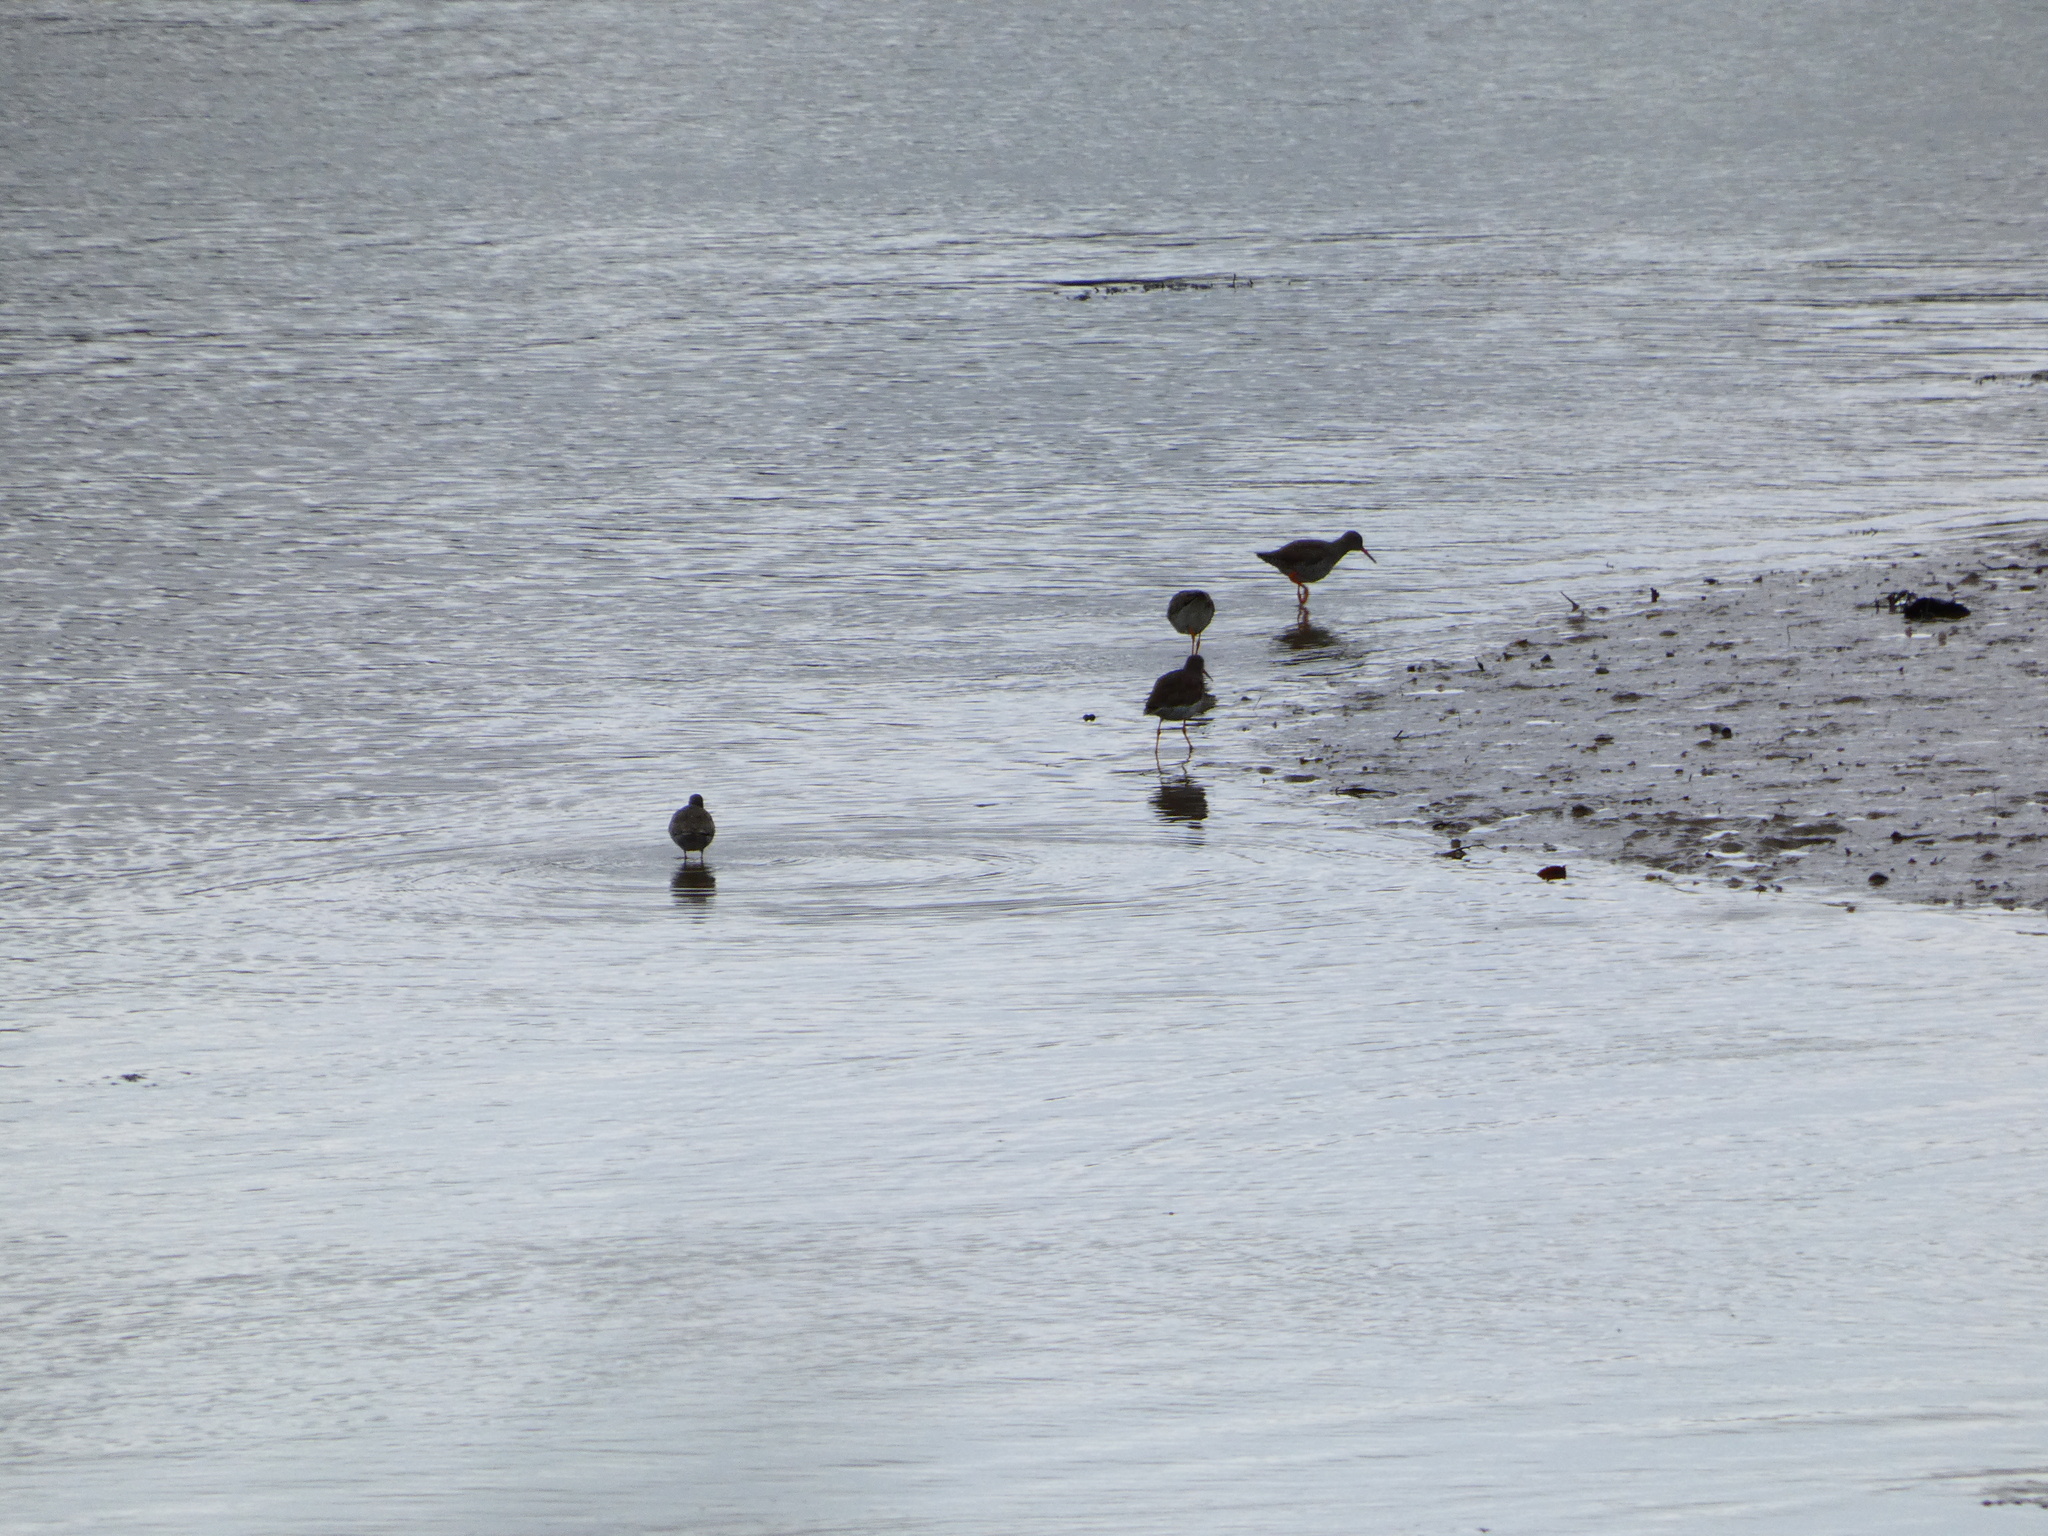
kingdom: Animalia
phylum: Chordata
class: Aves
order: Charadriiformes
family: Scolopacidae
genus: Tringa
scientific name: Tringa totanus
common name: Common redshank
